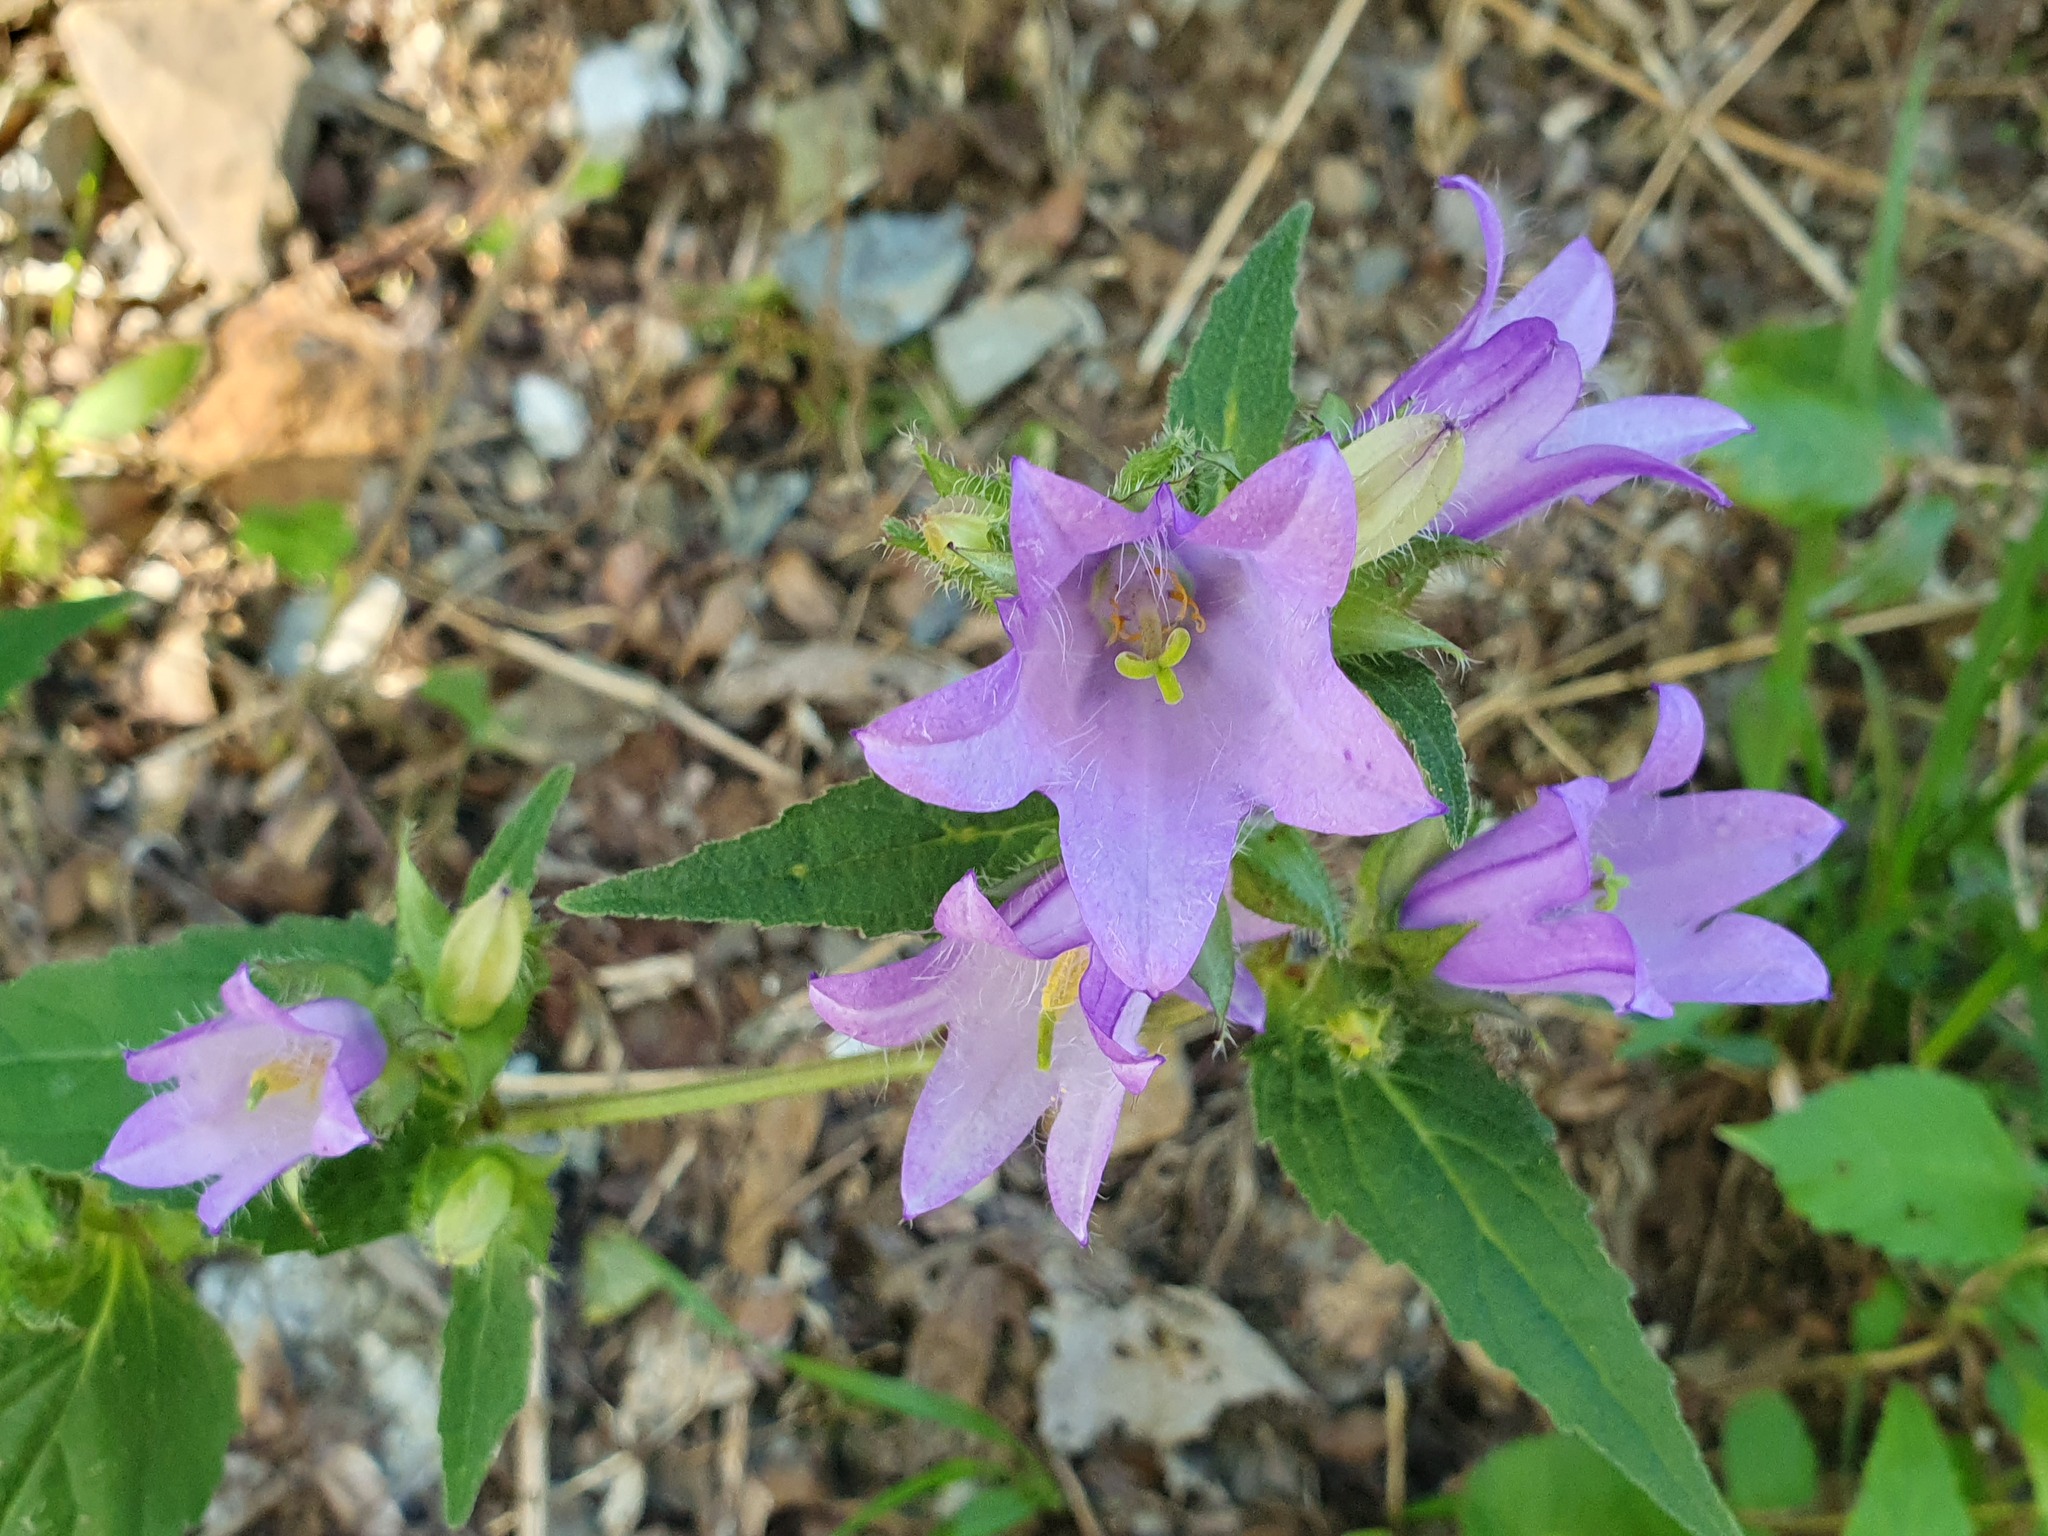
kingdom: Plantae
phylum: Tracheophyta
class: Magnoliopsida
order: Asterales
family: Campanulaceae
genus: Campanula
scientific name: Campanula trachelium
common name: Nettle-leaved bellflower
